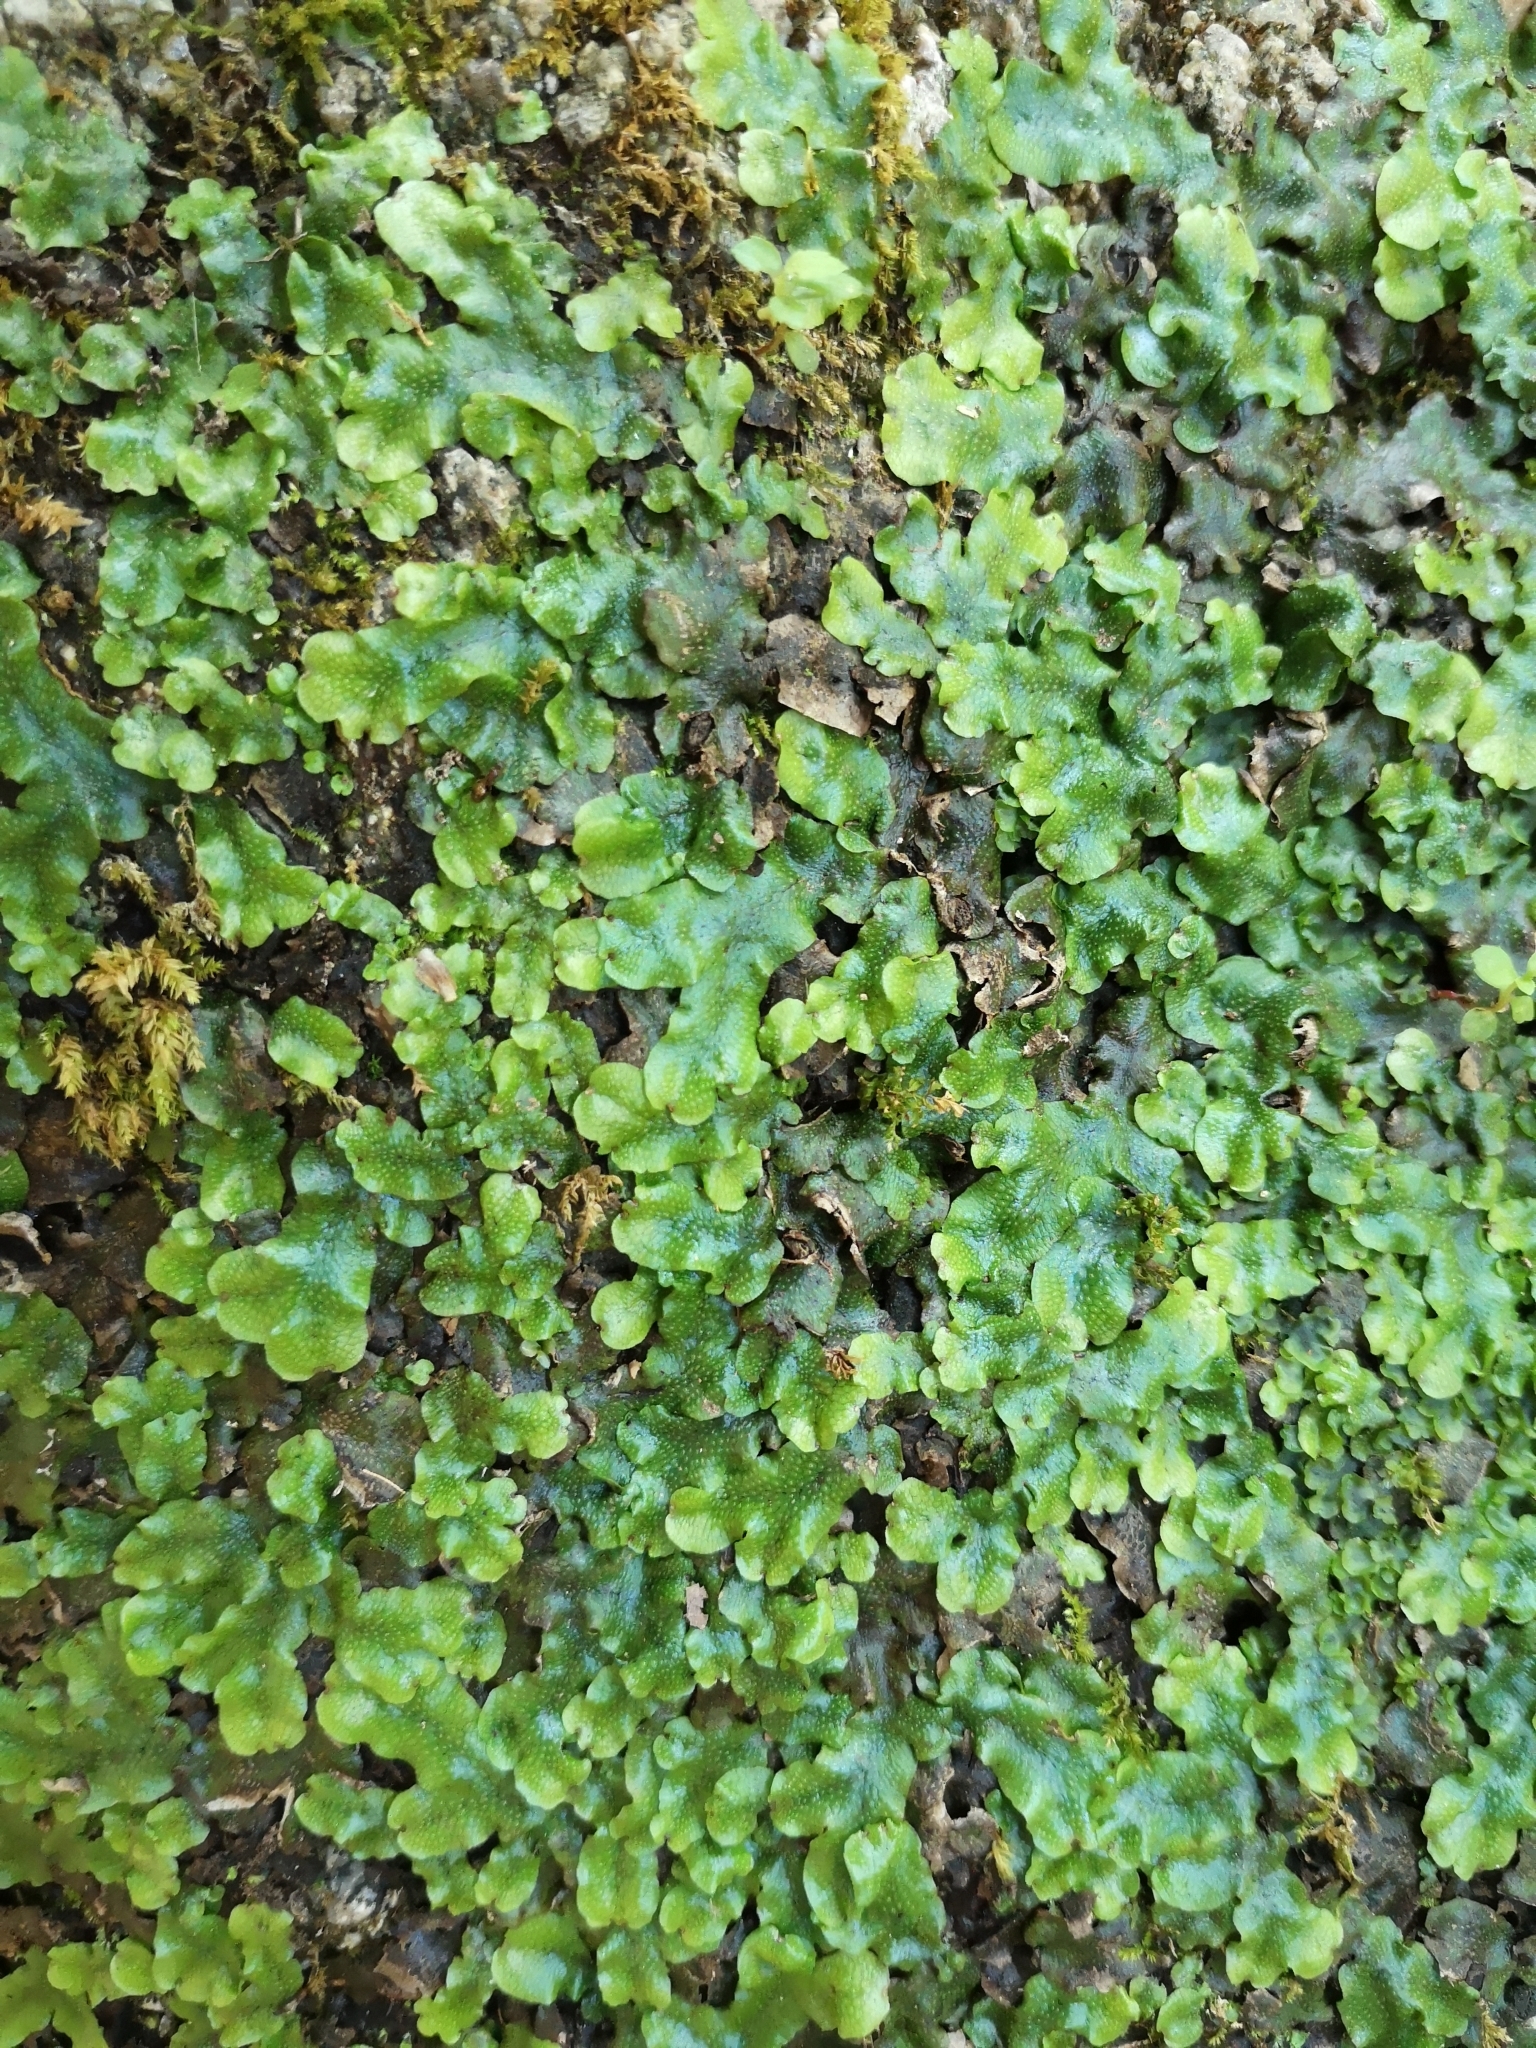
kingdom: Plantae
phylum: Marchantiophyta
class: Marchantiopsida
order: Marchantiales
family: Conocephalaceae
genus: Conocephalum
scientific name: Conocephalum conicum
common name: Great scented liverwort
